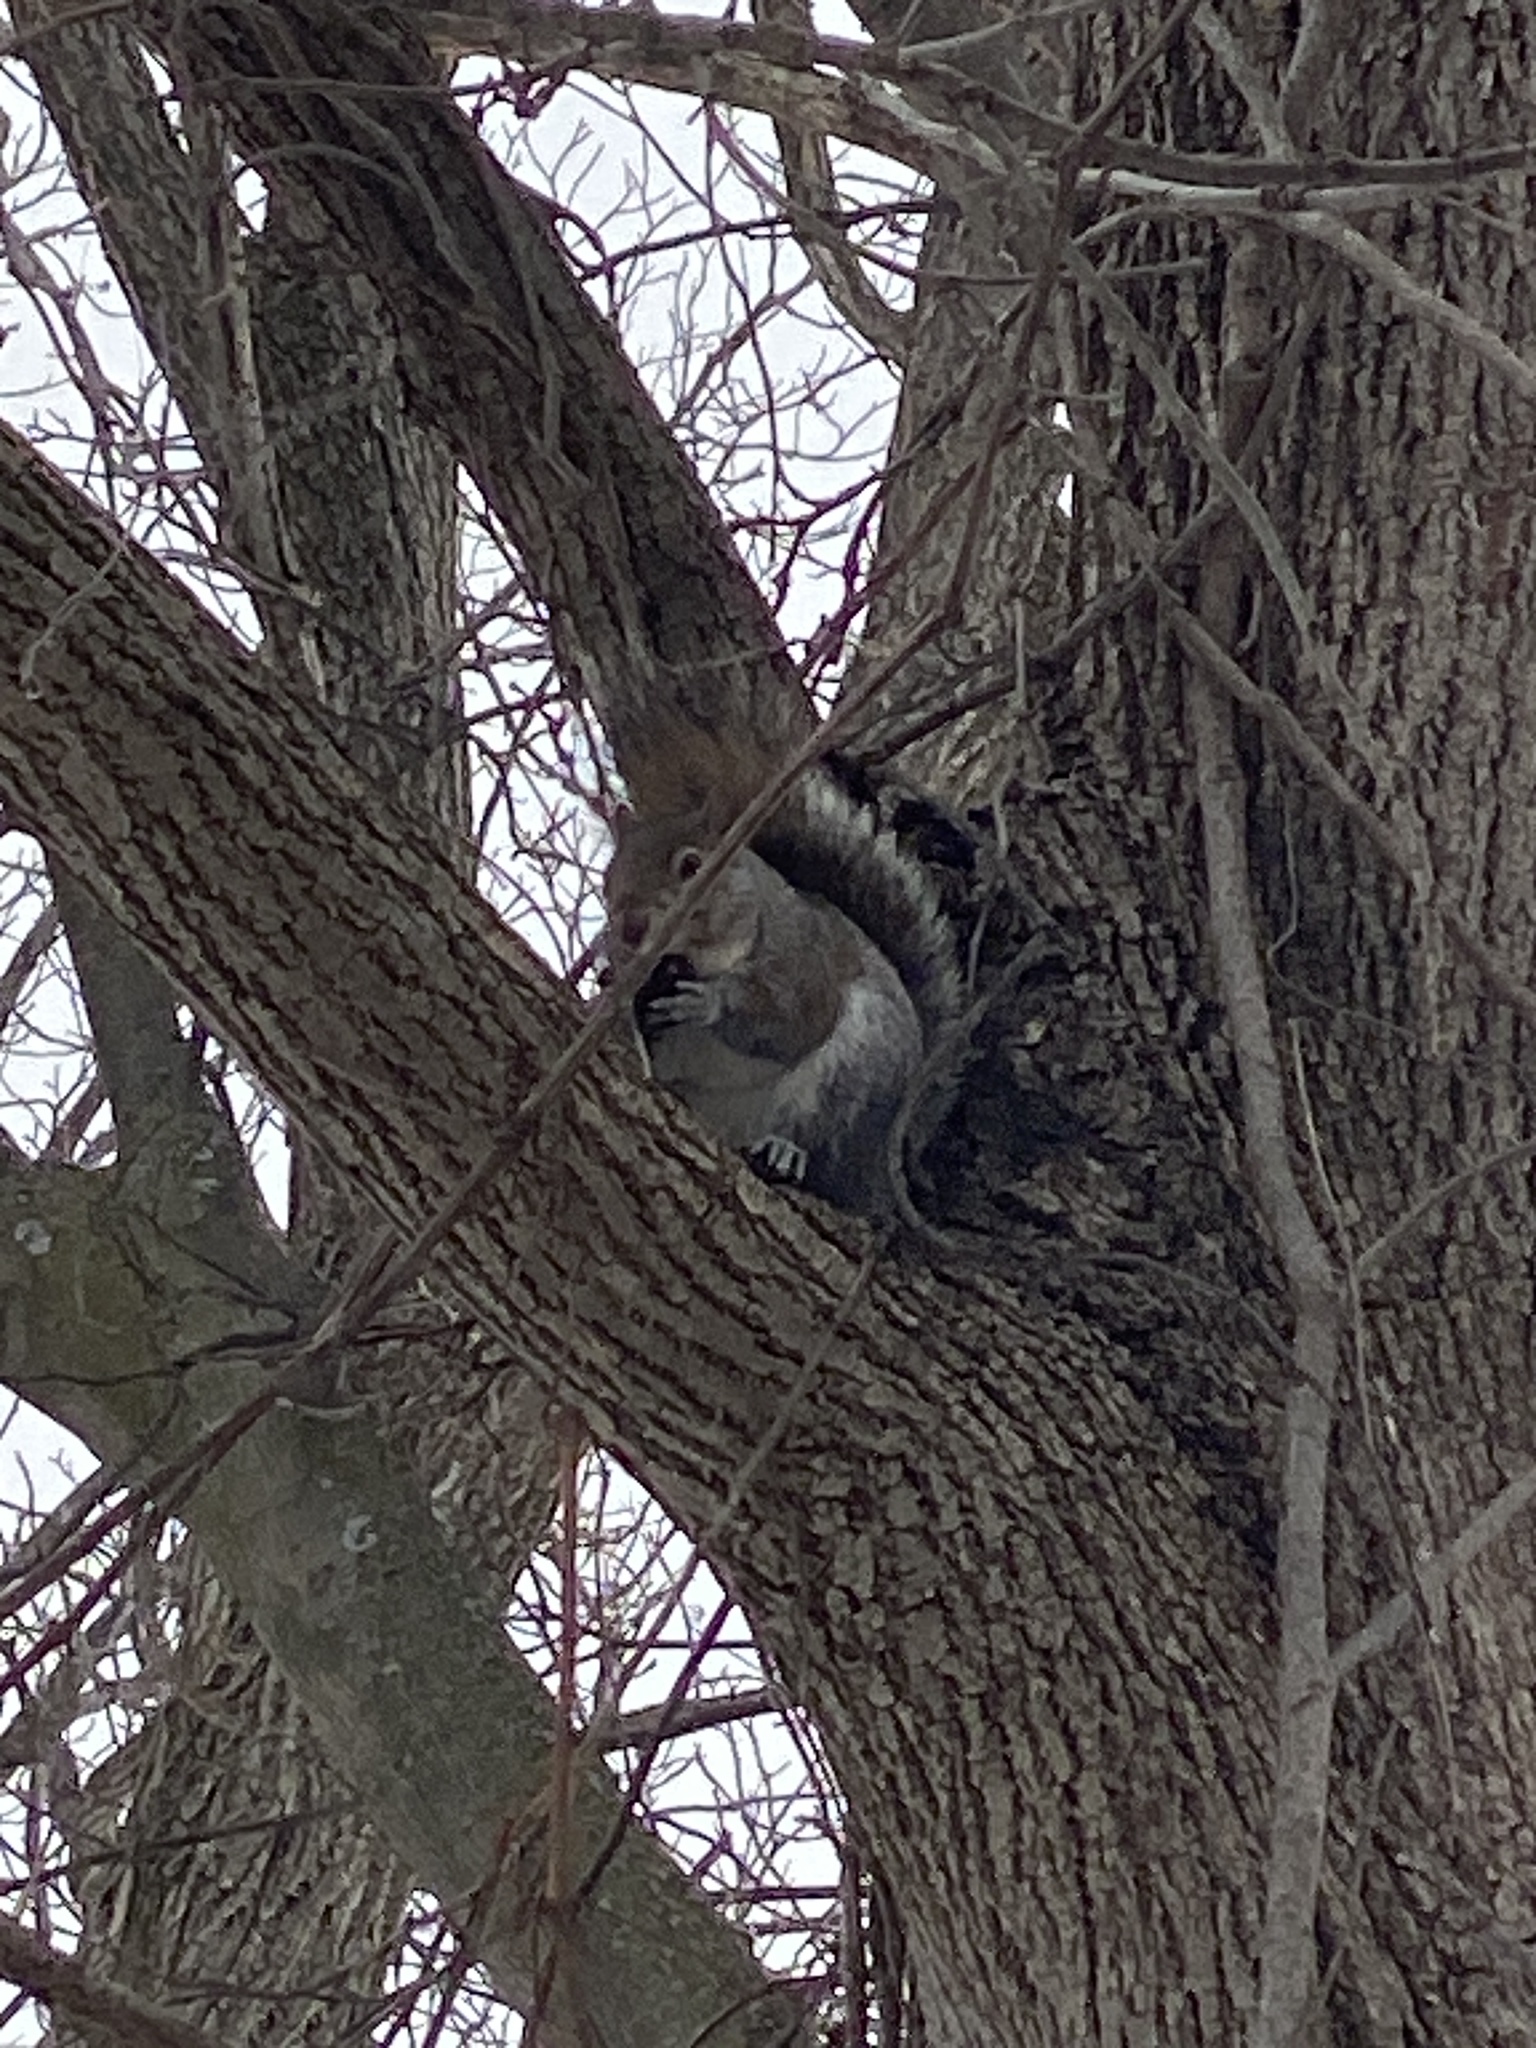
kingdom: Animalia
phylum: Chordata
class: Mammalia
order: Rodentia
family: Sciuridae
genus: Sciurus
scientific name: Sciurus carolinensis
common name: Eastern gray squirrel
